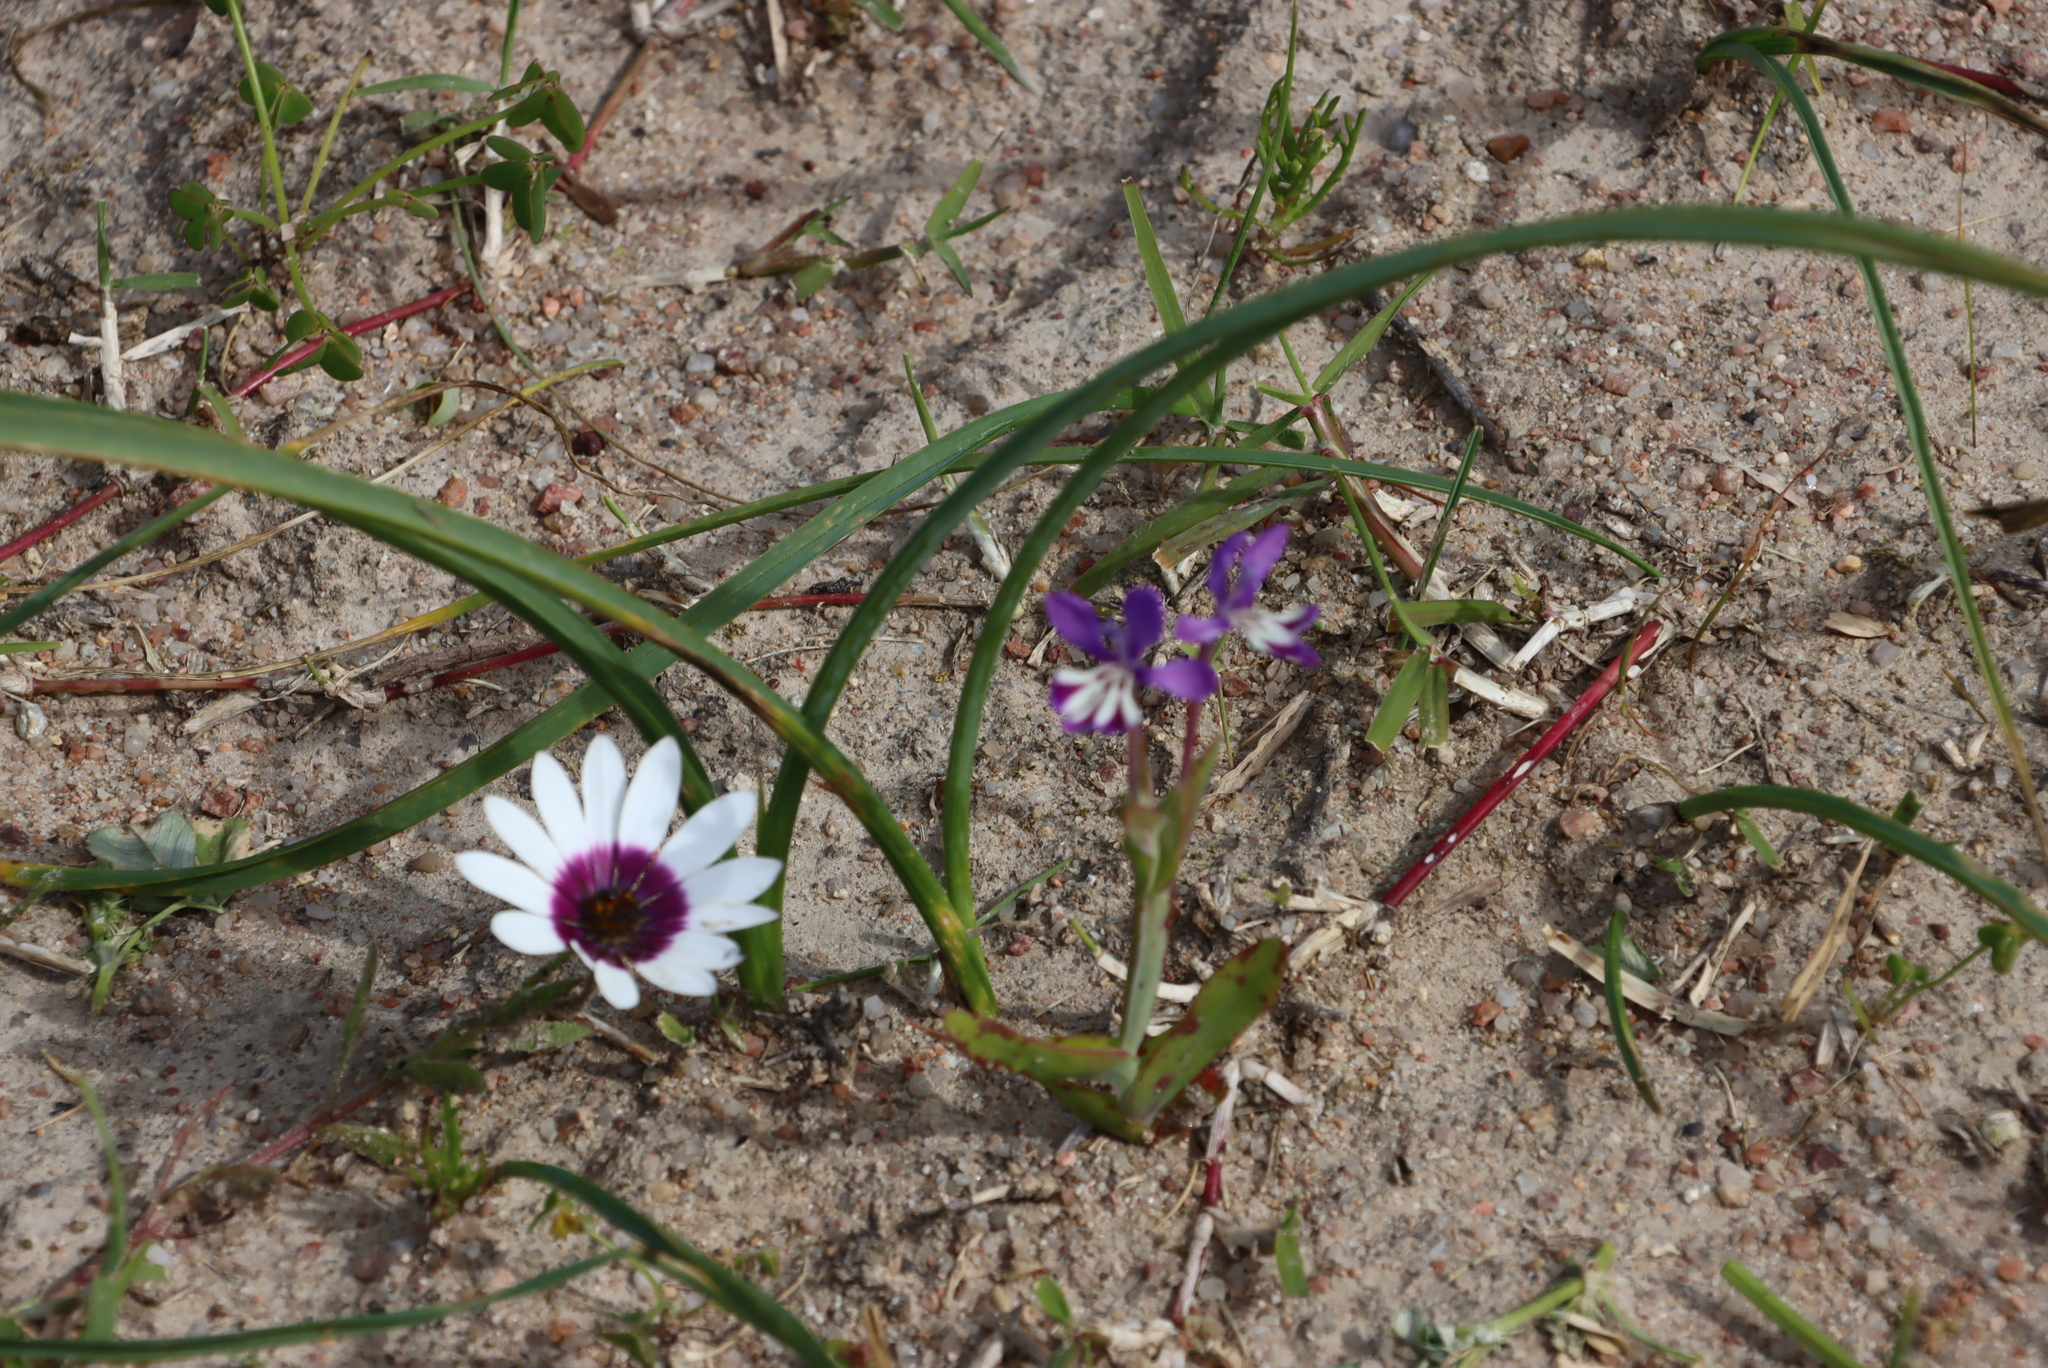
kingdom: Plantae
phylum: Tracheophyta
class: Liliopsida
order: Asparagales
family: Iridaceae
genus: Lapeirousia
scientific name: Lapeirousia jacquinii
